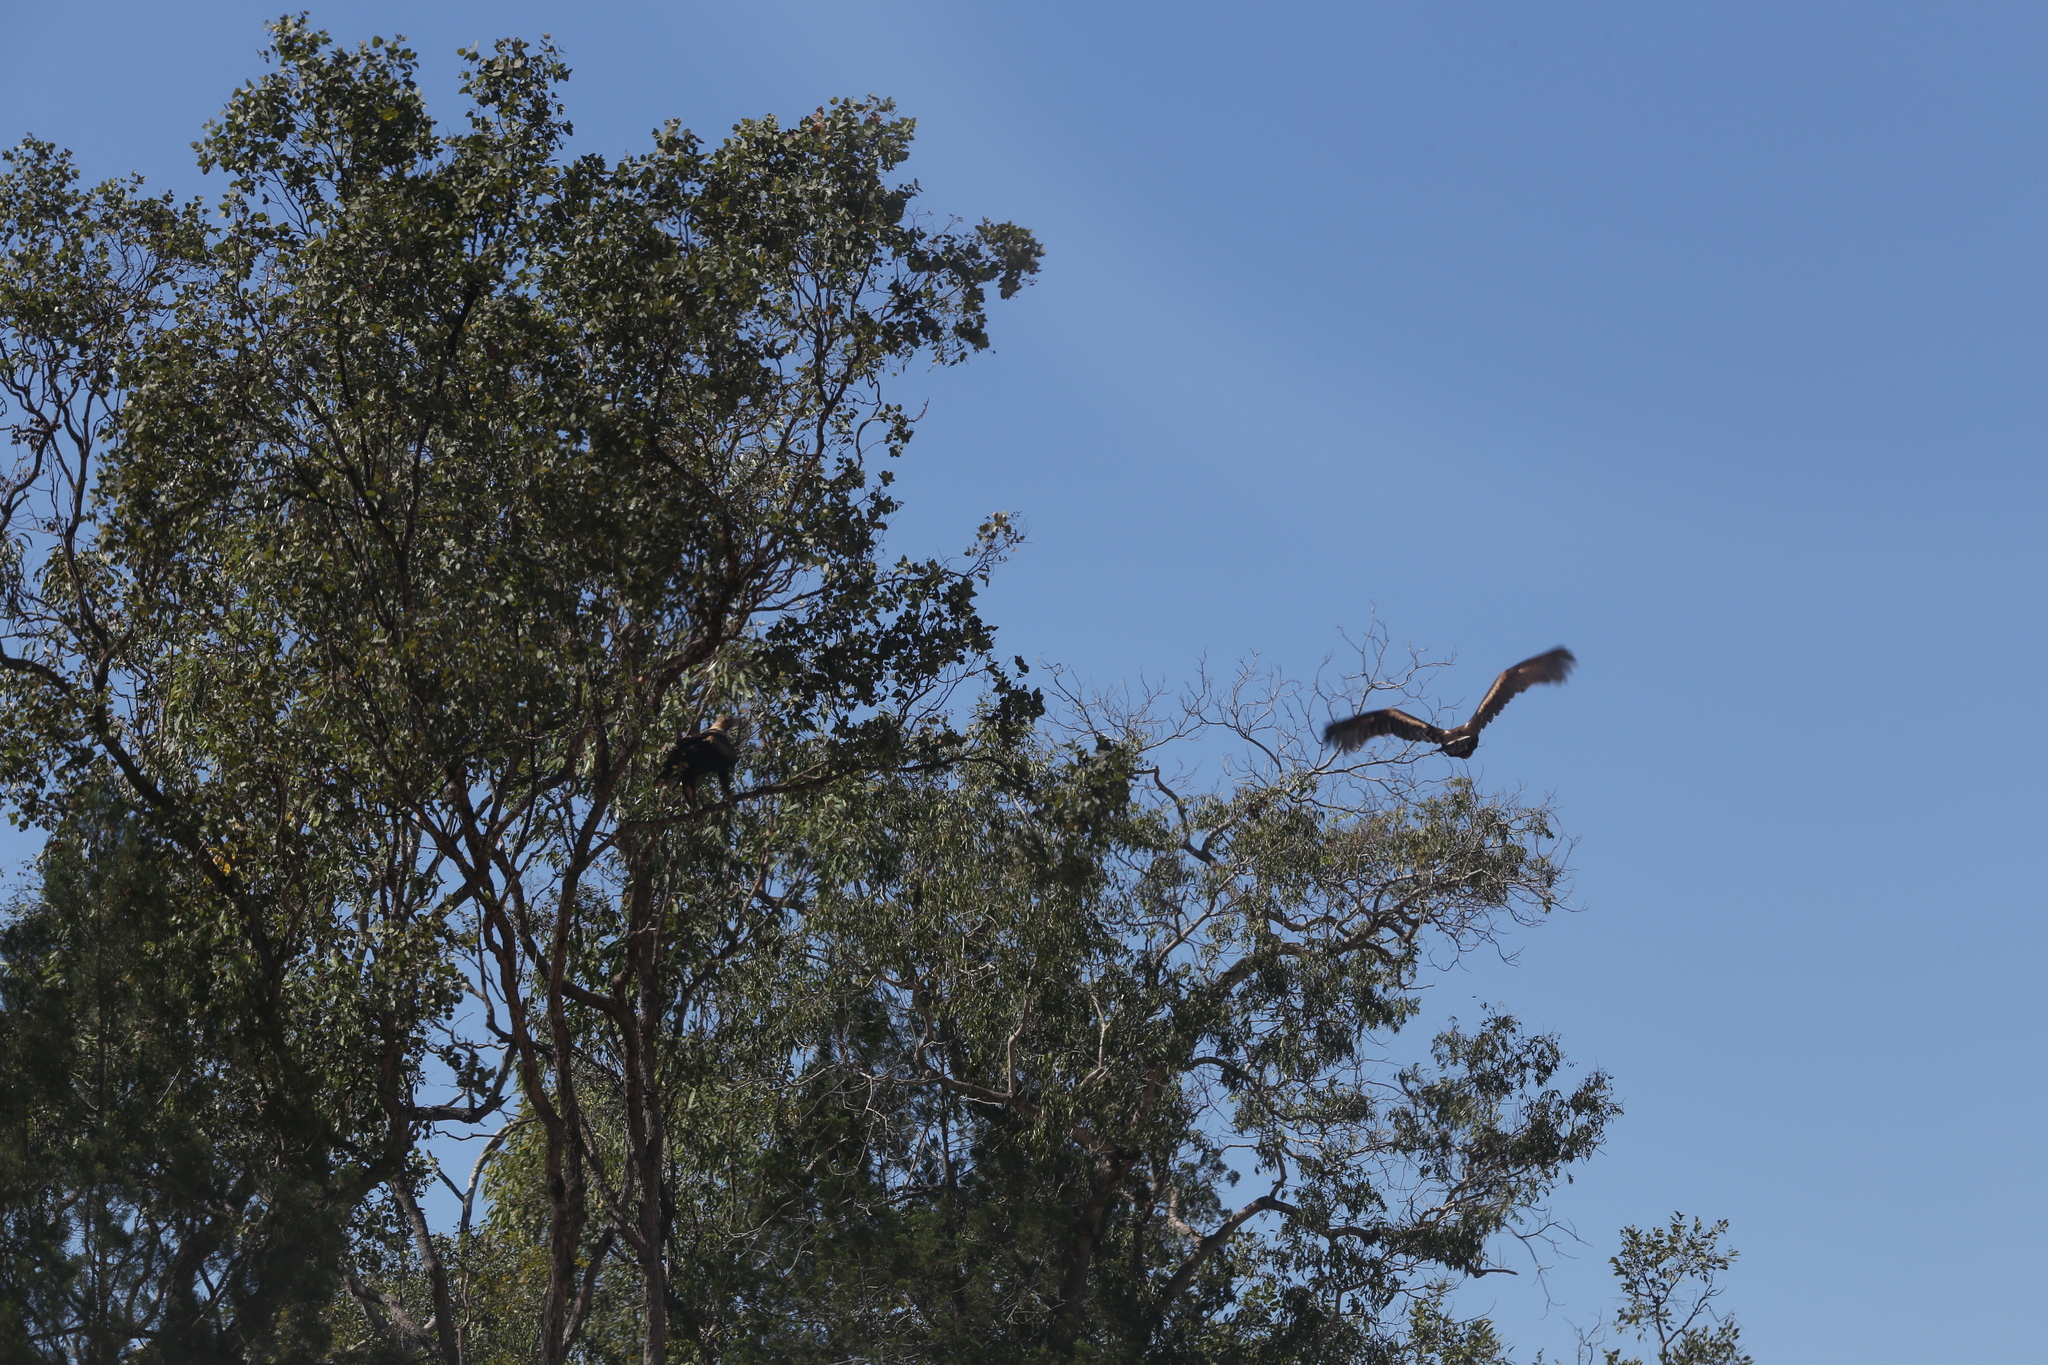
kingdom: Animalia
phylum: Chordata
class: Aves
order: Accipitriformes
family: Accipitridae
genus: Aquila
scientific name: Aquila audax
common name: Wedge-tailed eagle
